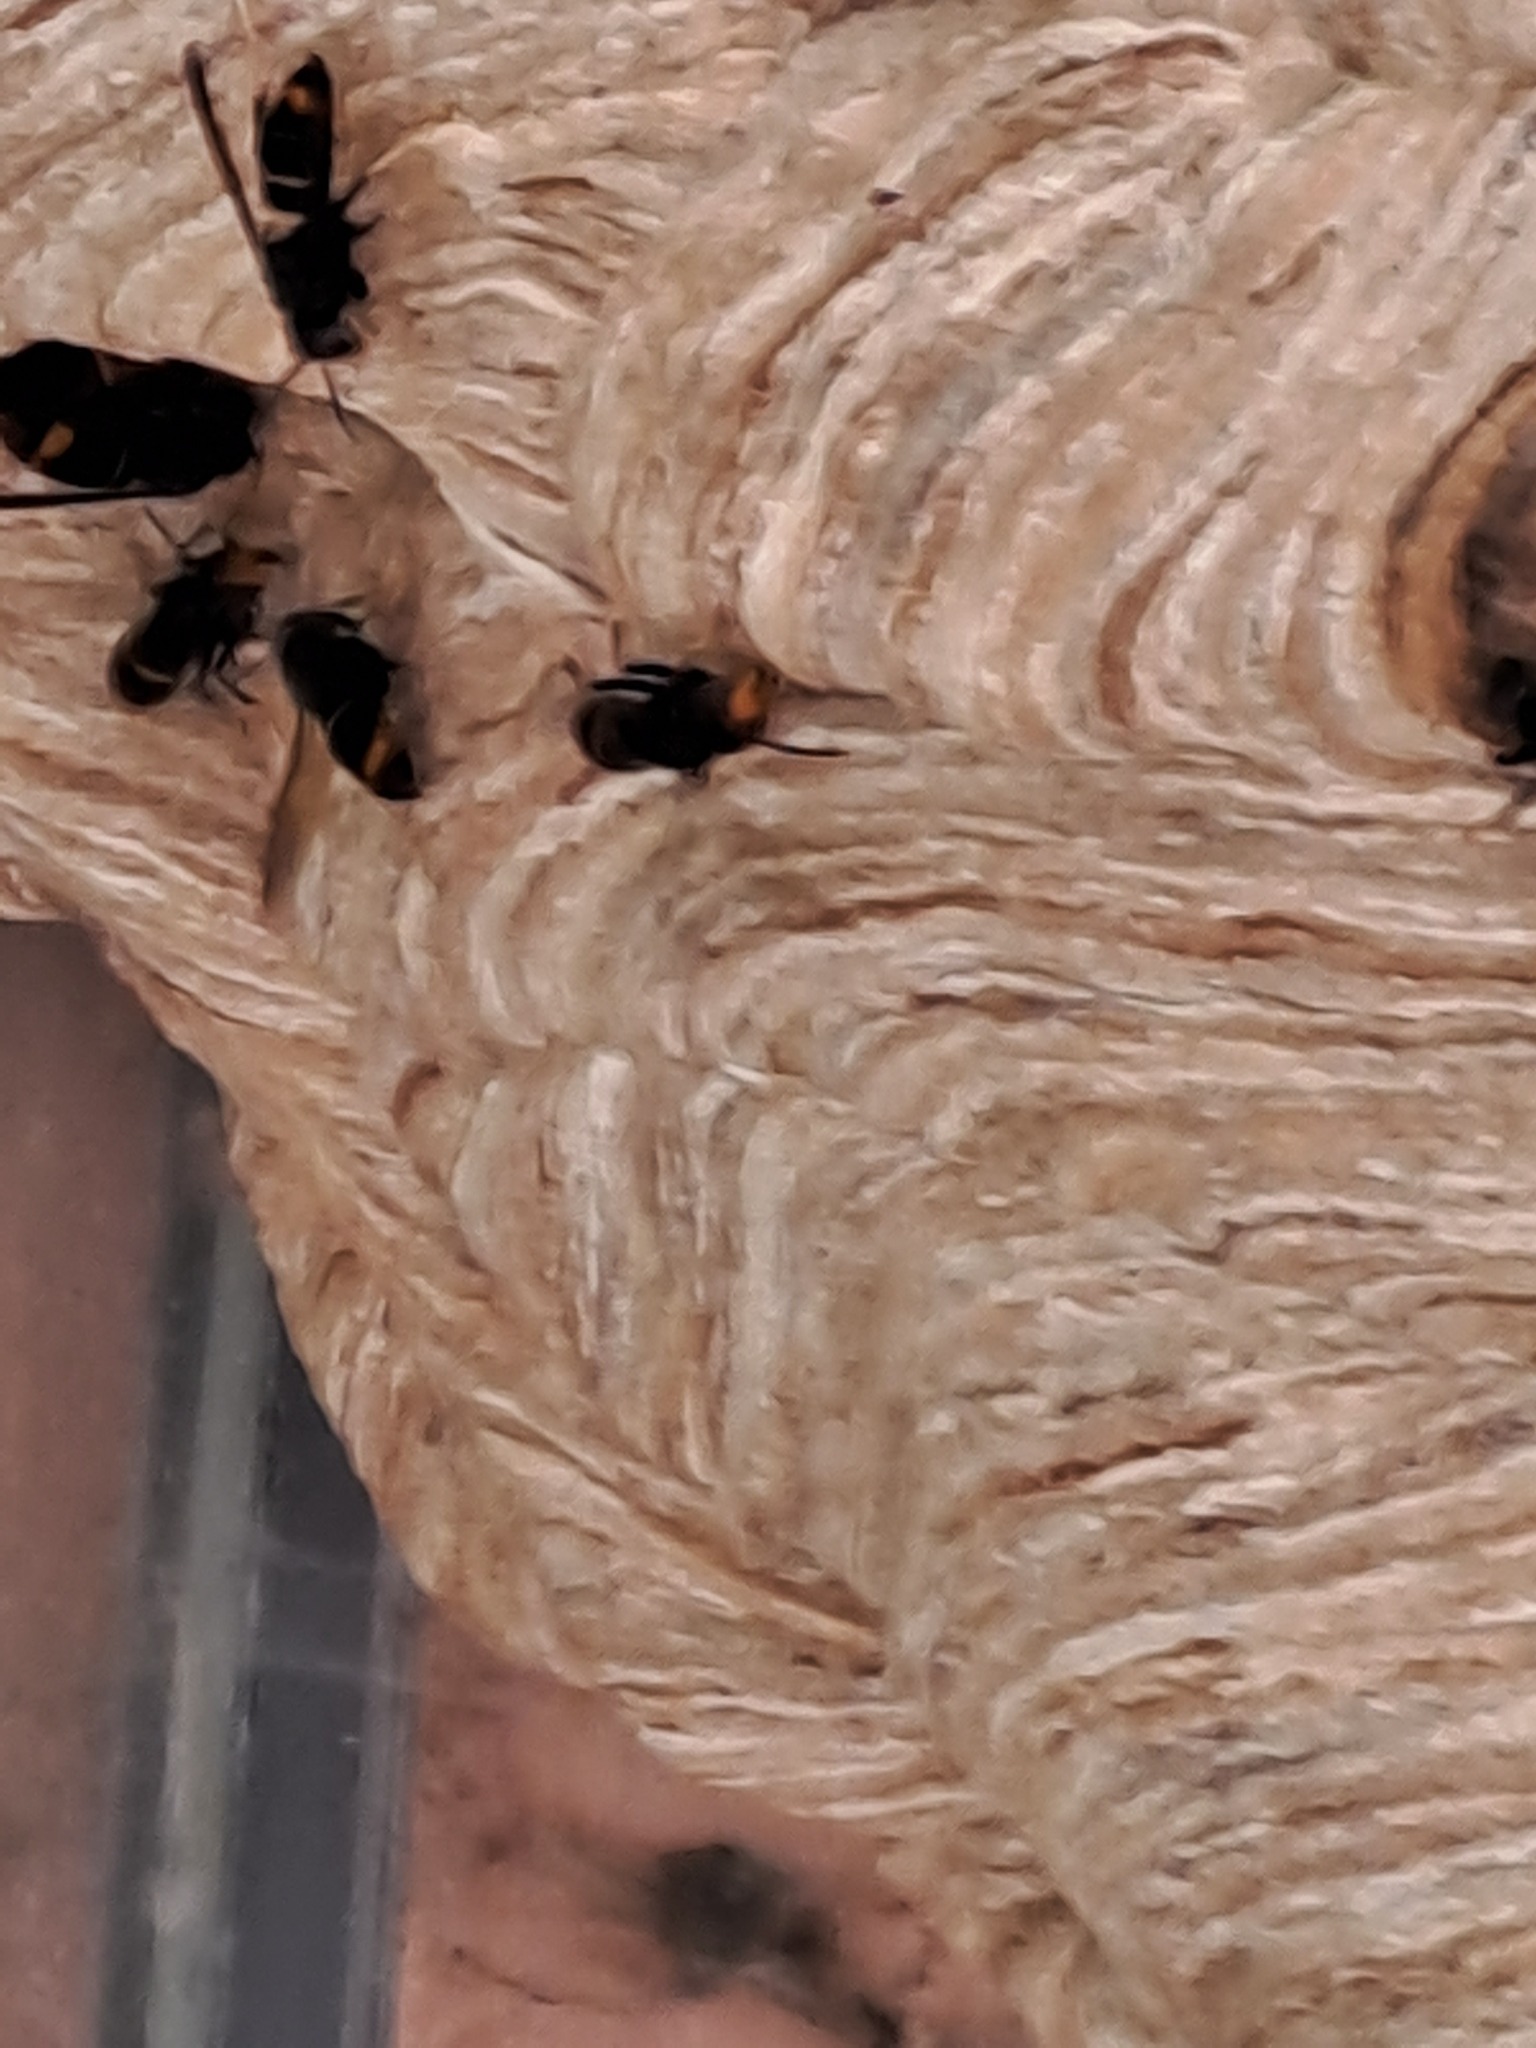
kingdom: Animalia
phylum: Arthropoda
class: Insecta
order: Hymenoptera
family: Vespidae
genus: Vespa
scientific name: Vespa velutina
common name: Asian hornet
